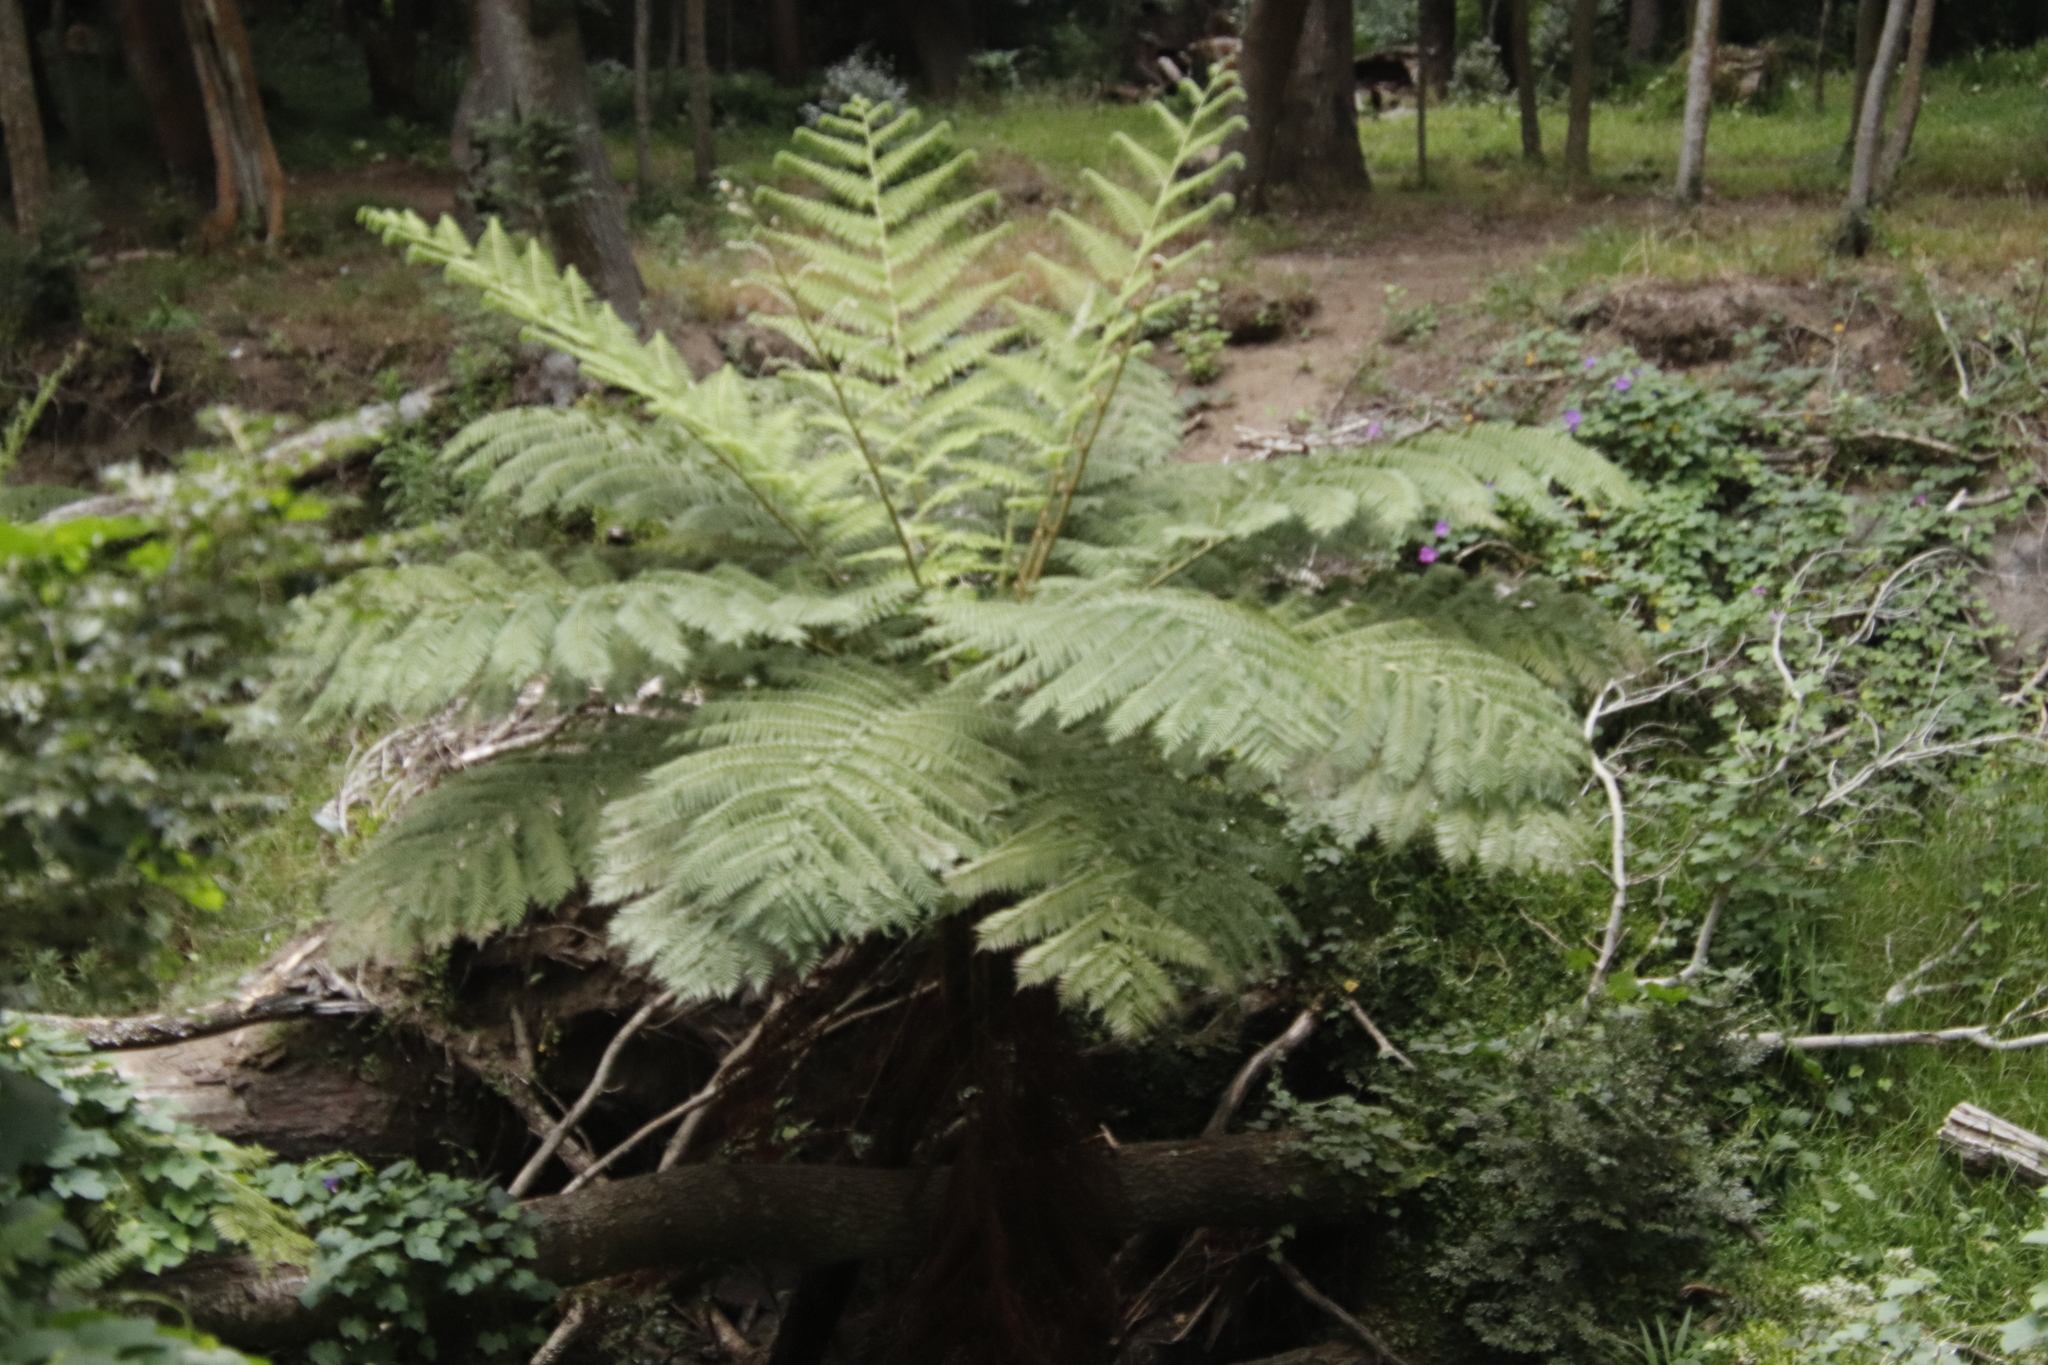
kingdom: Plantae
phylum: Tracheophyta
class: Polypodiopsida
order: Cyatheales
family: Cyatheaceae
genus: Sphaeropteris
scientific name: Sphaeropteris cooperi
